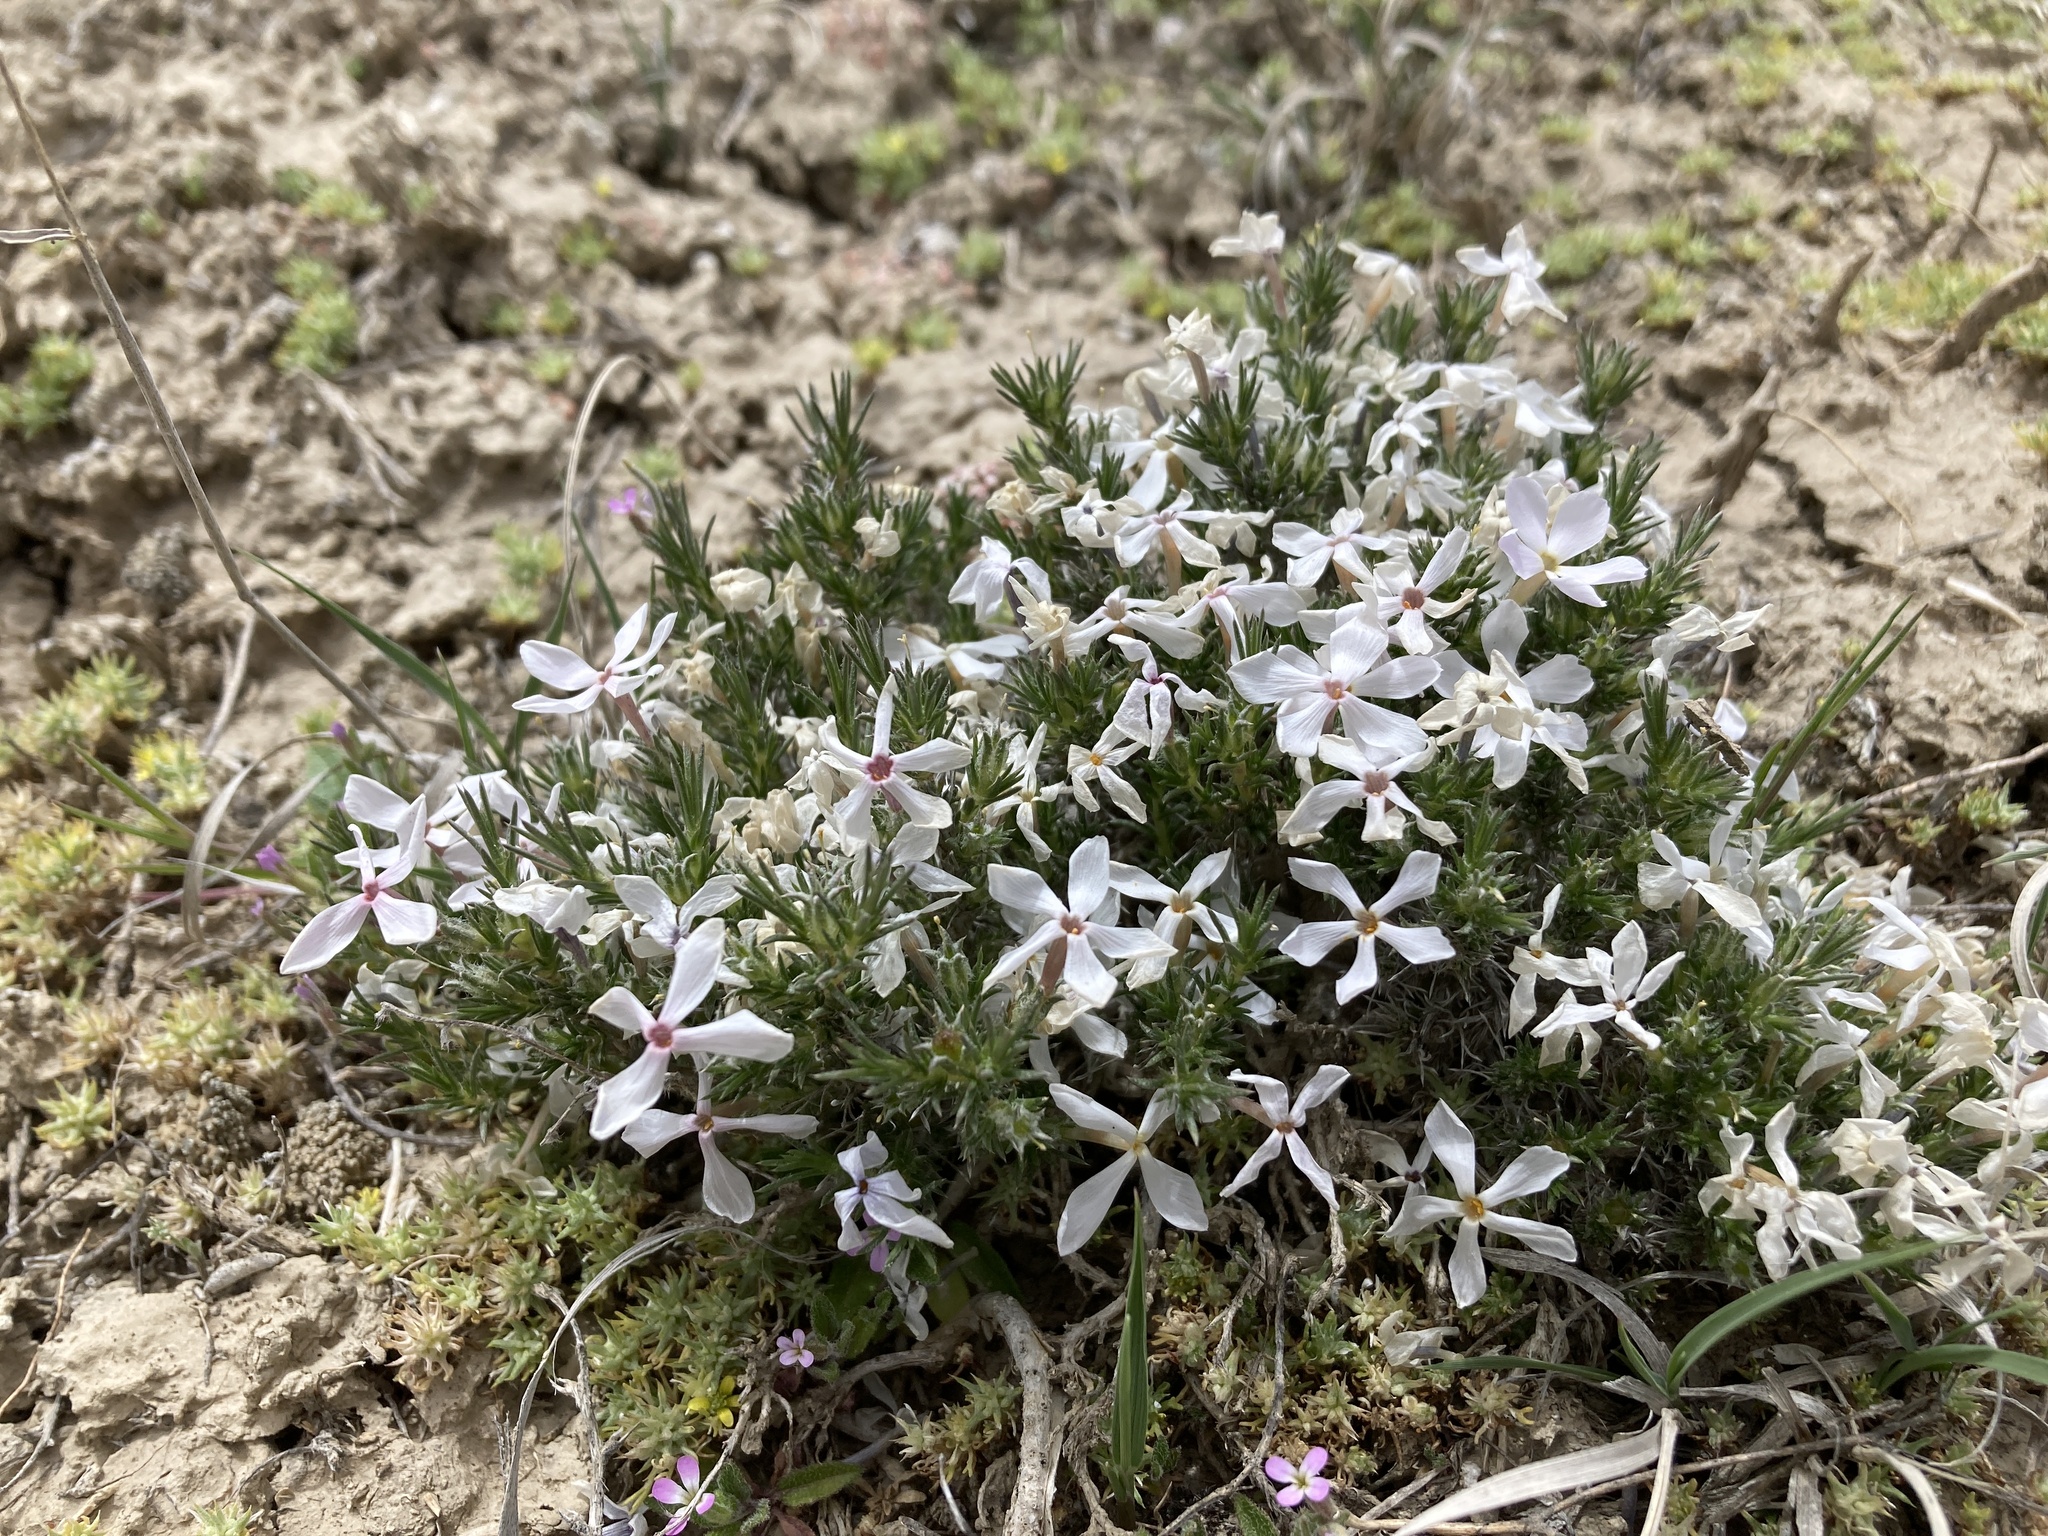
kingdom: Plantae
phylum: Tracheophyta
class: Magnoliopsida
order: Ericales
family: Polemoniaceae
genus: Phlox
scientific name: Phlox hoodii
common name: Moss phlox
